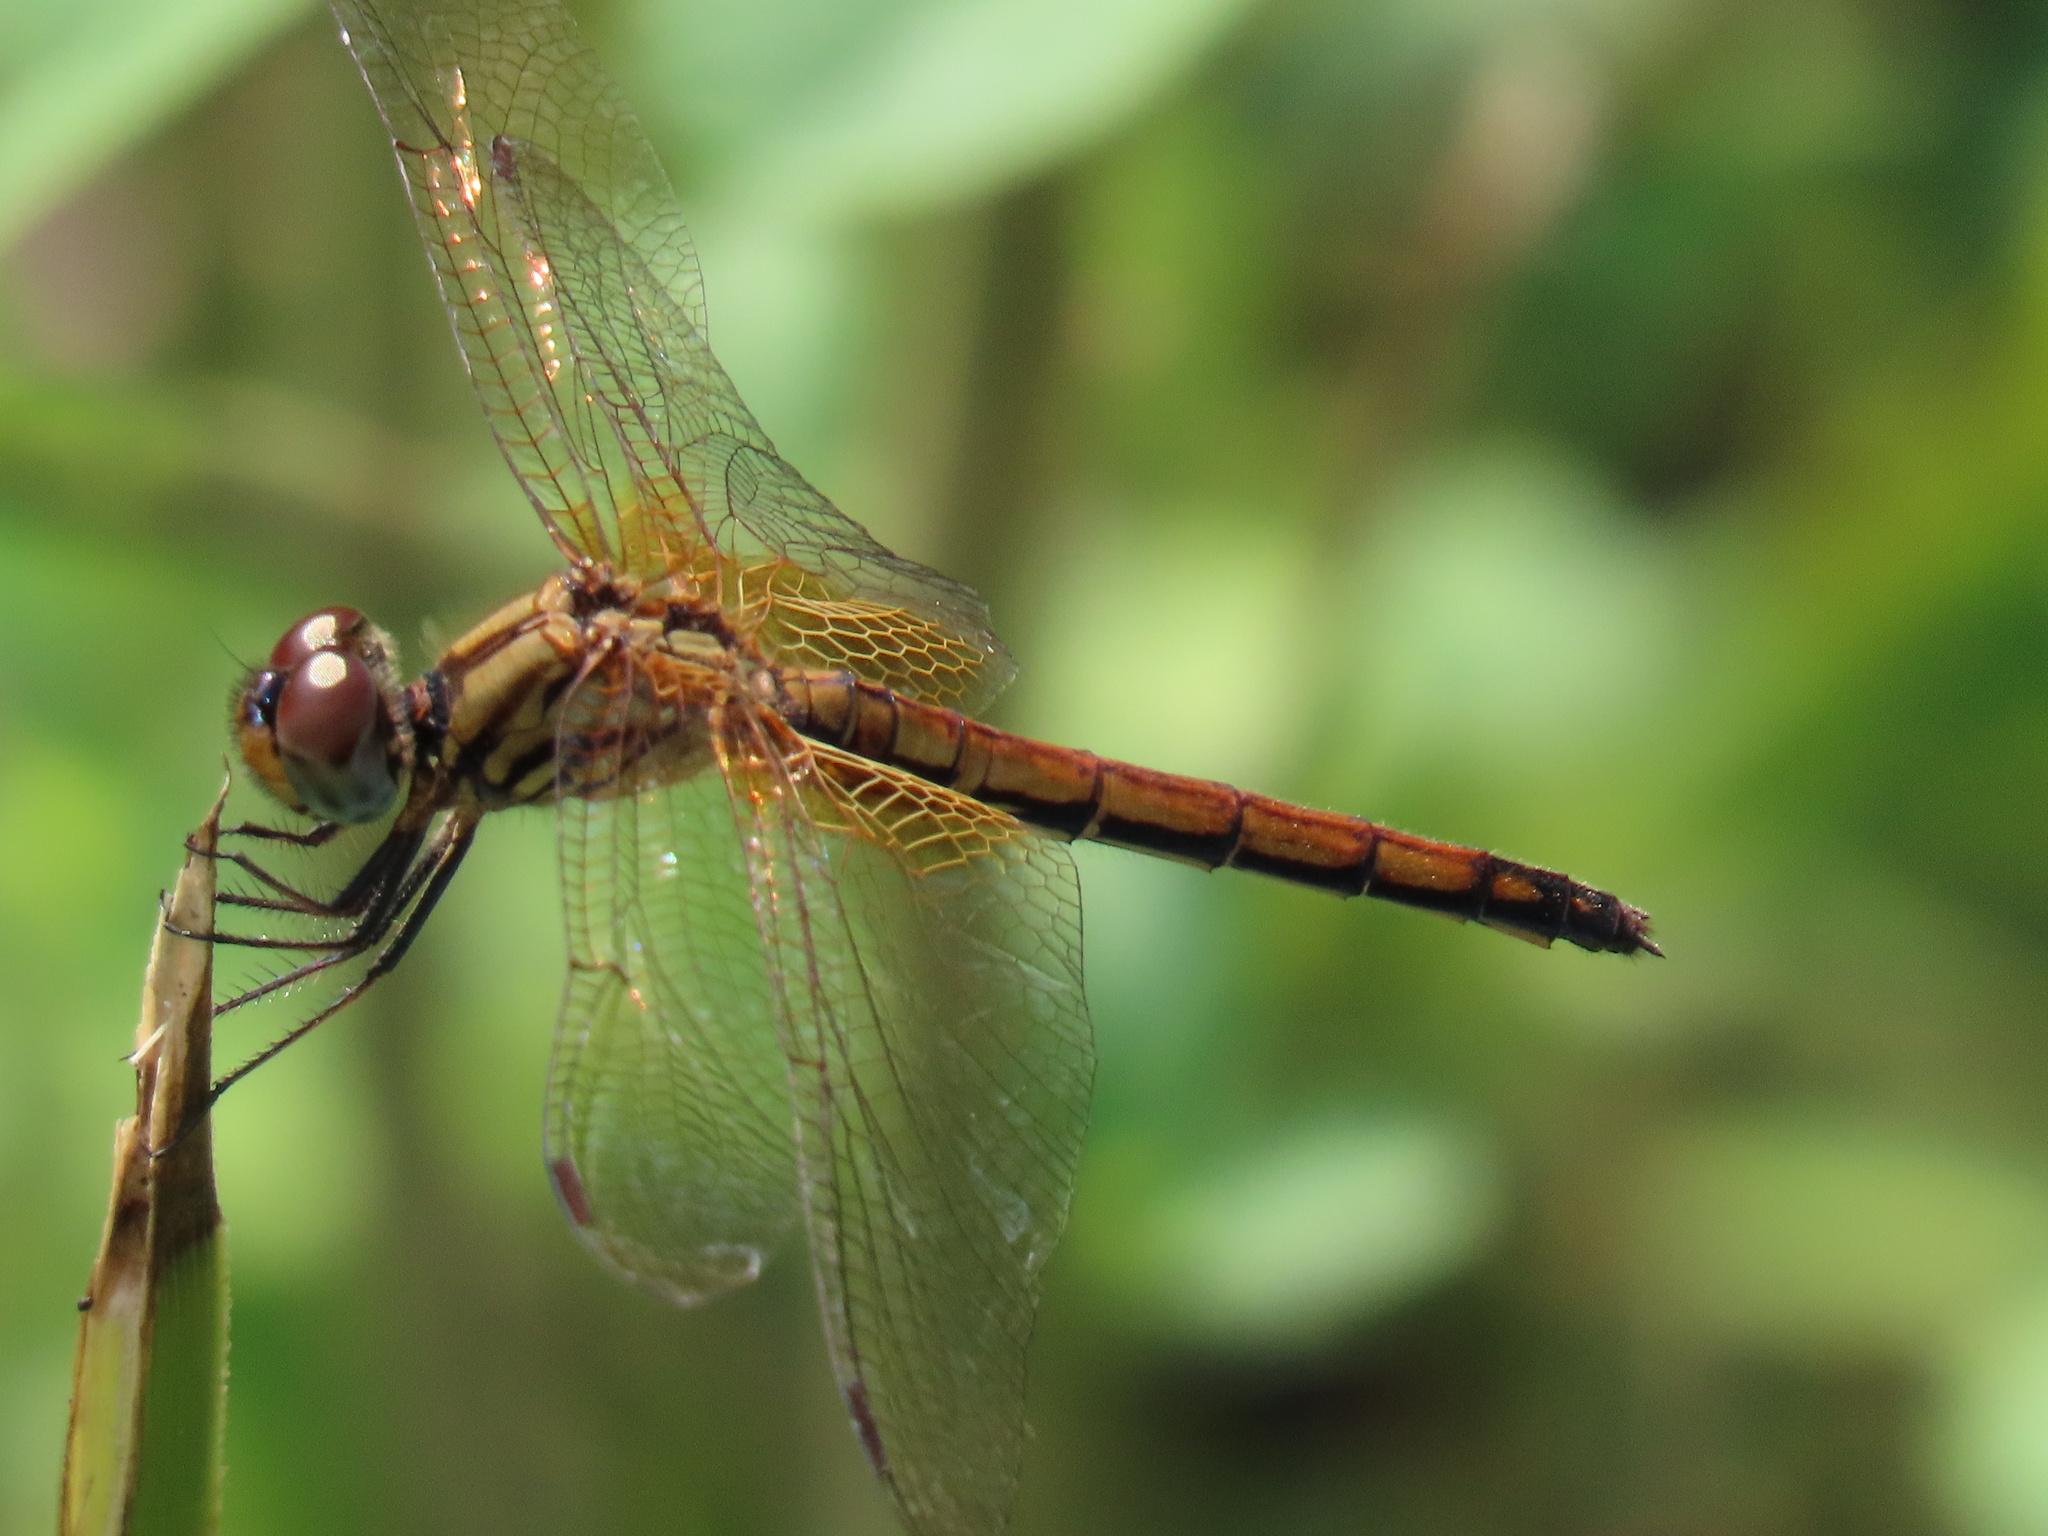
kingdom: Animalia
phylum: Arthropoda
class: Insecta
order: Odonata
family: Libellulidae
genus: Trithemis
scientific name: Trithemis aurora
